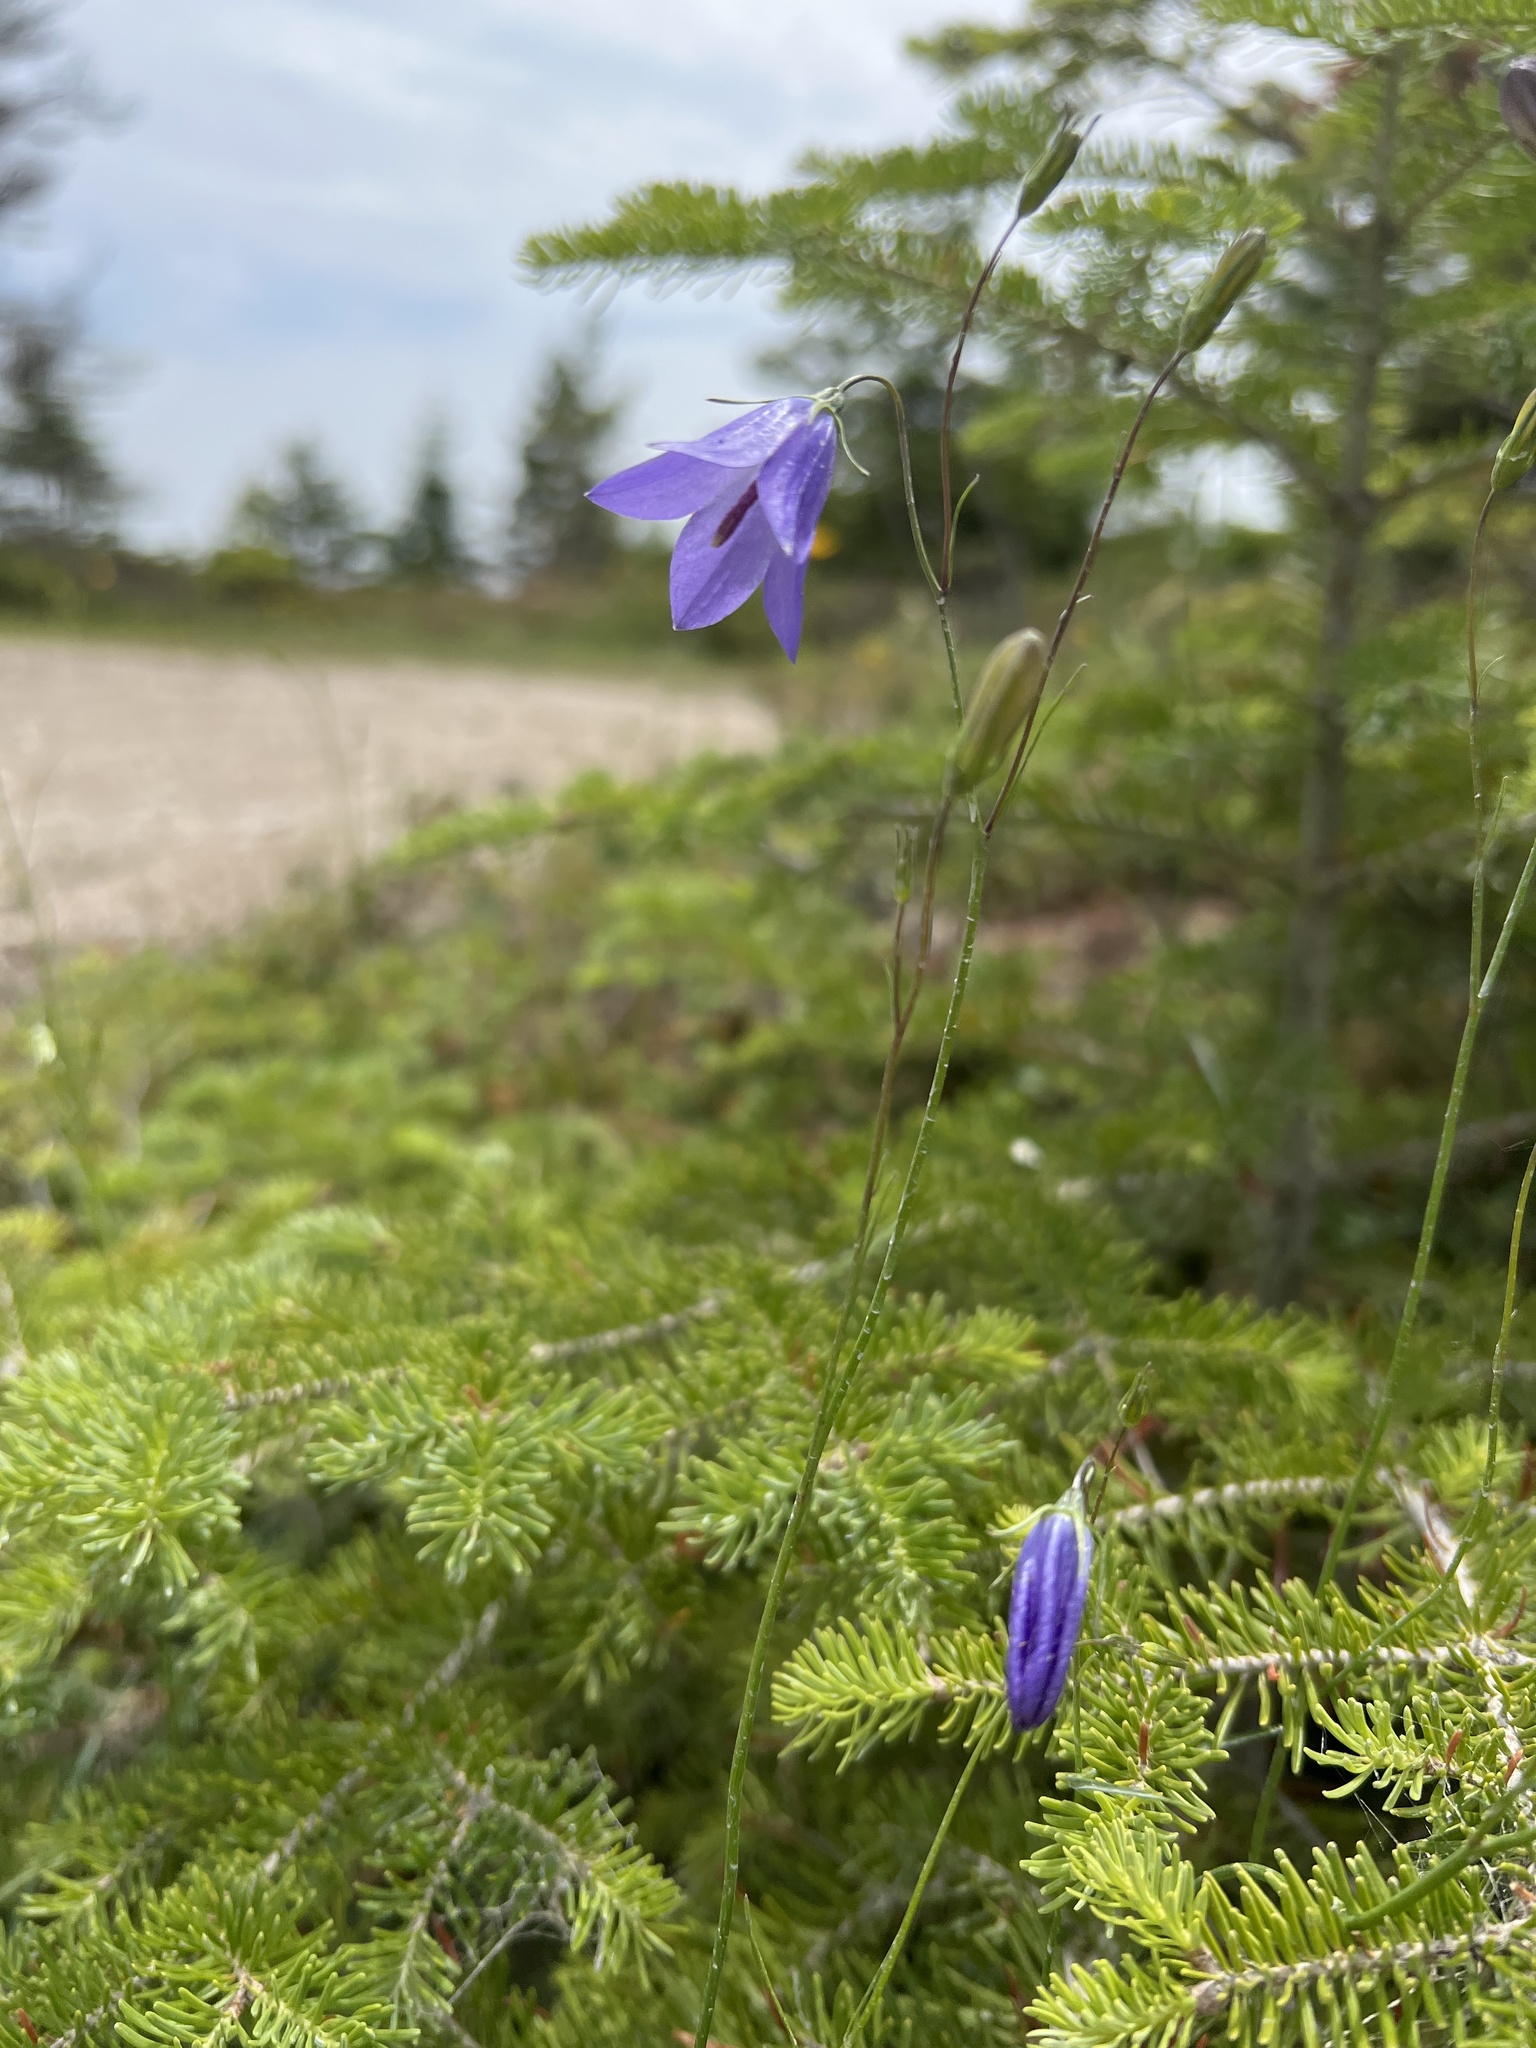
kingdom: Plantae
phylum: Tracheophyta
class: Magnoliopsida
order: Asterales
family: Campanulaceae
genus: Campanula
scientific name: Campanula intercedens
